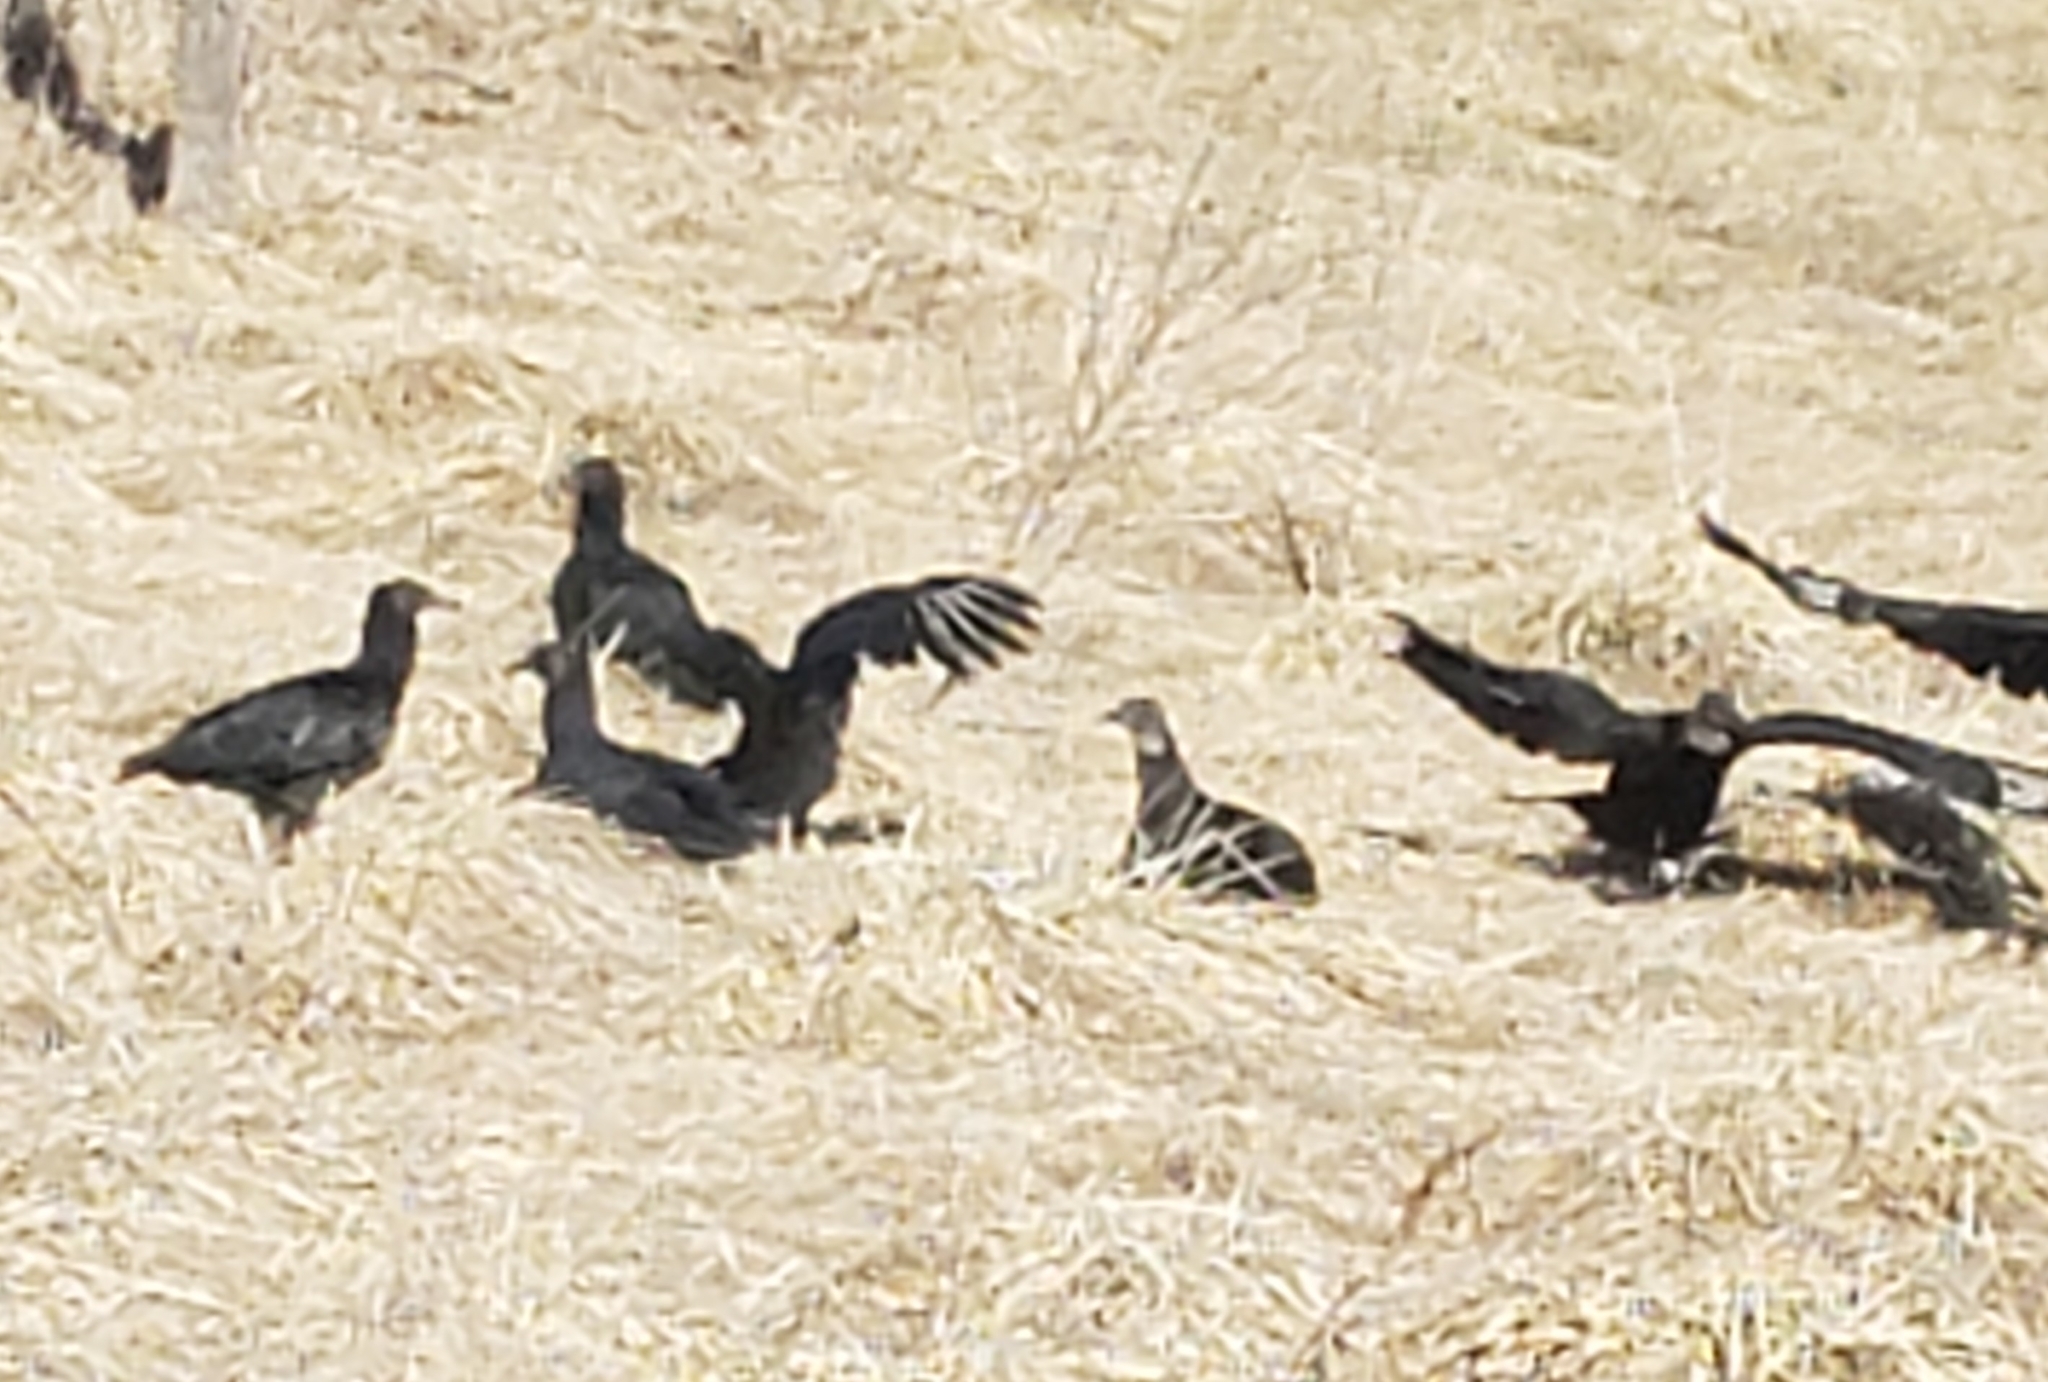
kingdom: Animalia
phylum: Chordata
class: Aves
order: Accipitriformes
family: Cathartidae
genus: Coragyps
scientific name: Coragyps atratus
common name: Black vulture
